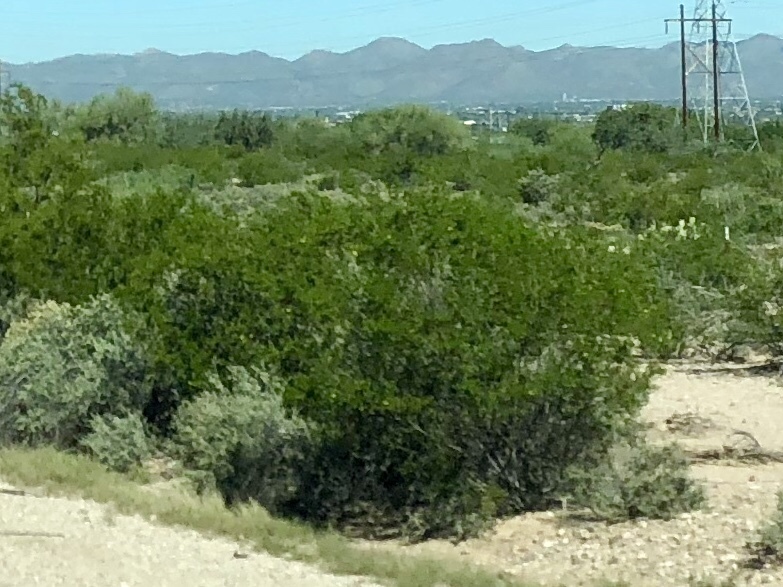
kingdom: Plantae
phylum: Tracheophyta
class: Magnoliopsida
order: Zygophyllales
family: Zygophyllaceae
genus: Larrea
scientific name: Larrea tridentata
